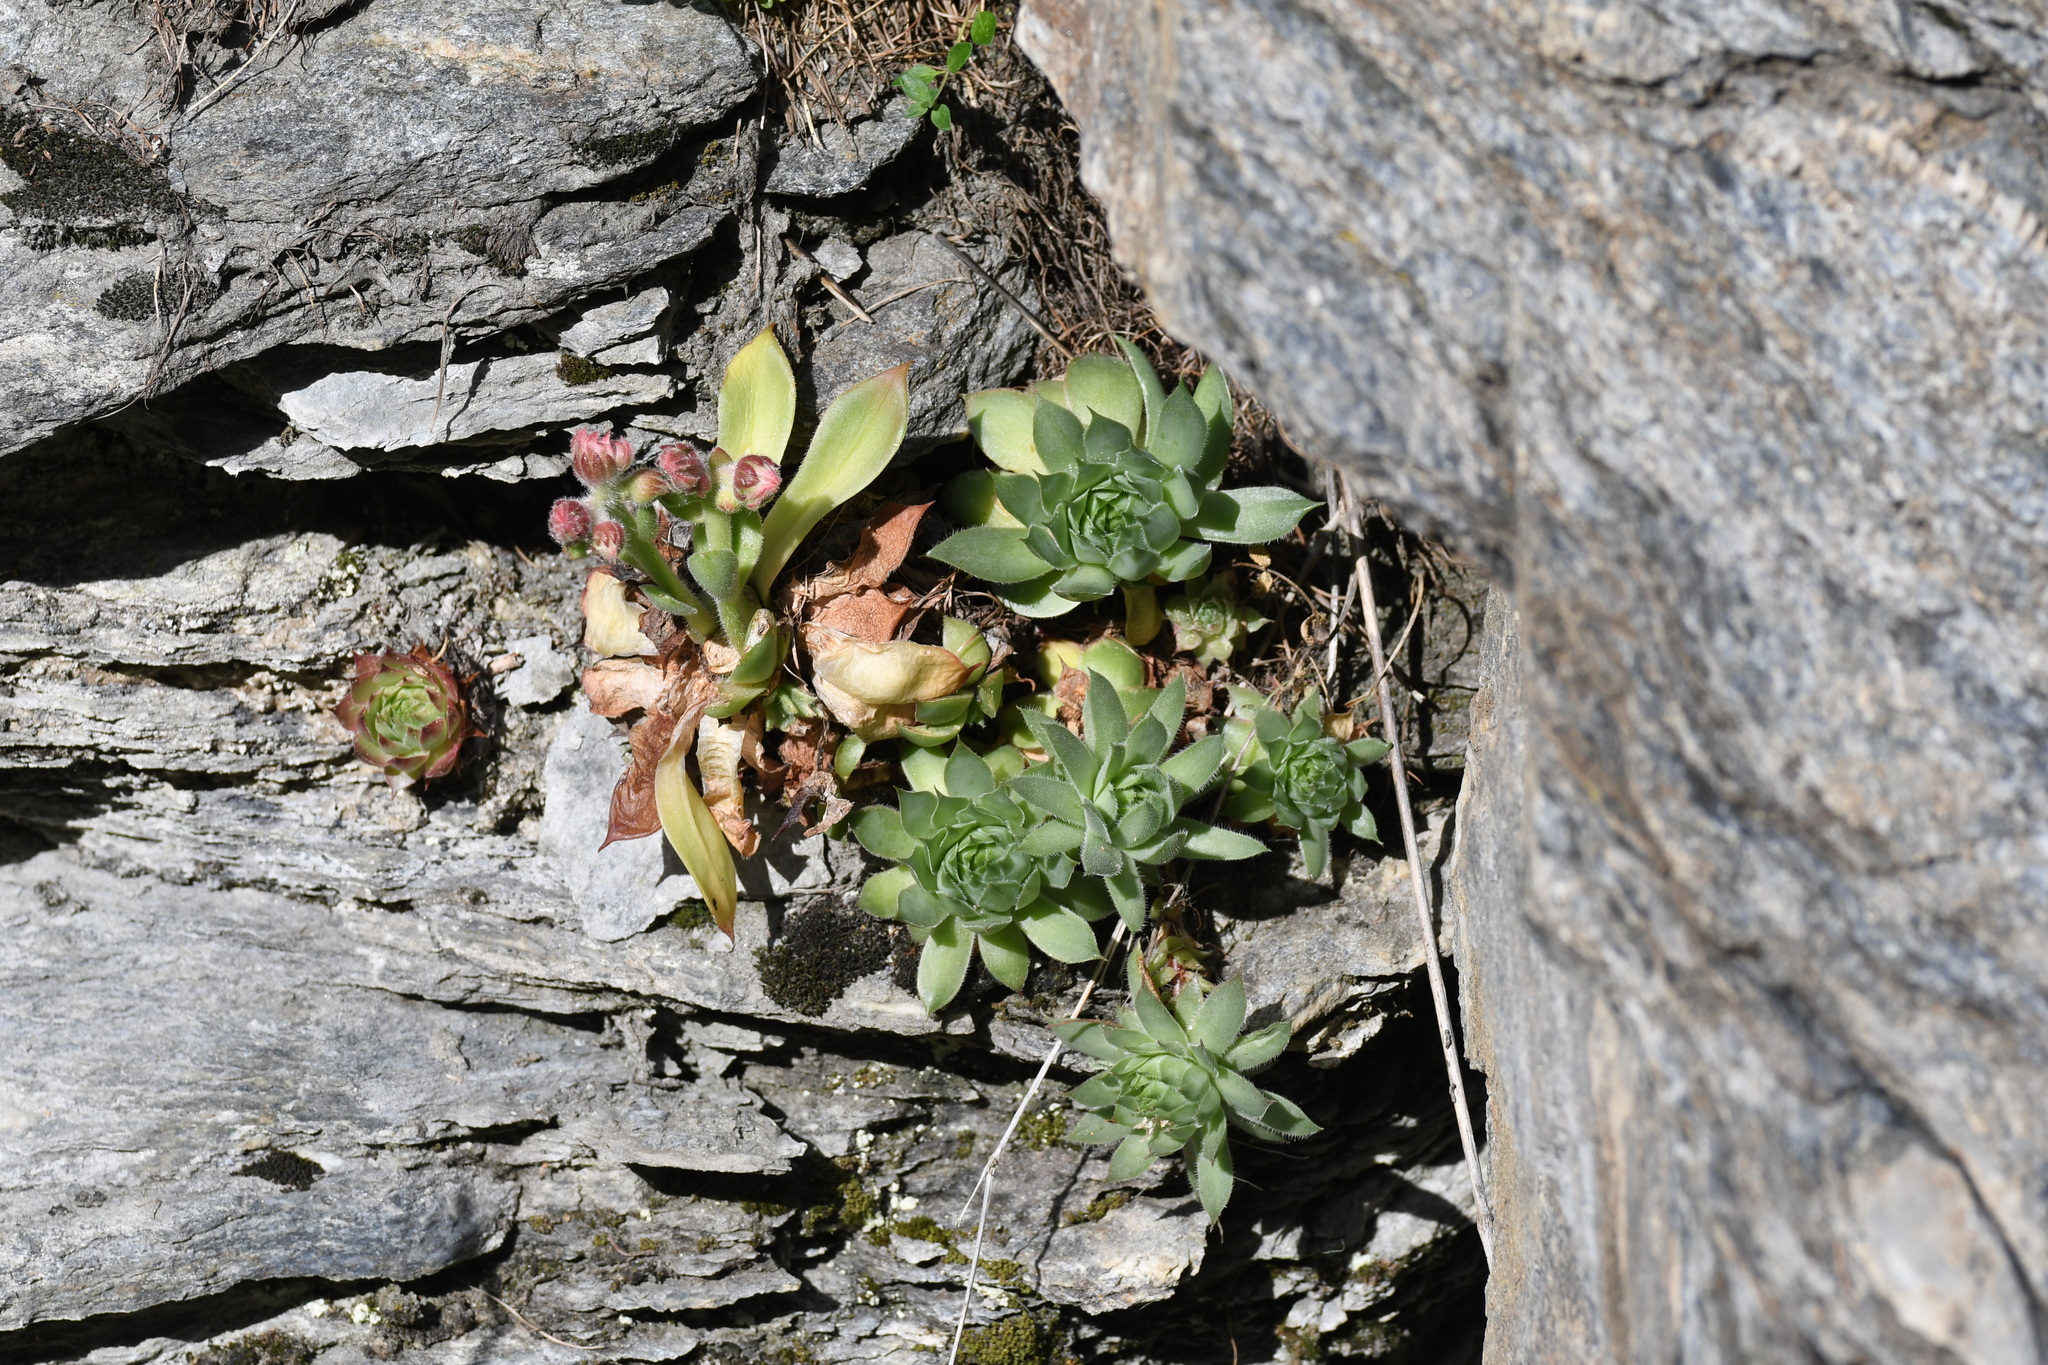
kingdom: Plantae
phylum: Tracheophyta
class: Magnoliopsida
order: Saxifragales
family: Crassulaceae
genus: Sempervivum
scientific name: Sempervivum tectorum
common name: House-leek
